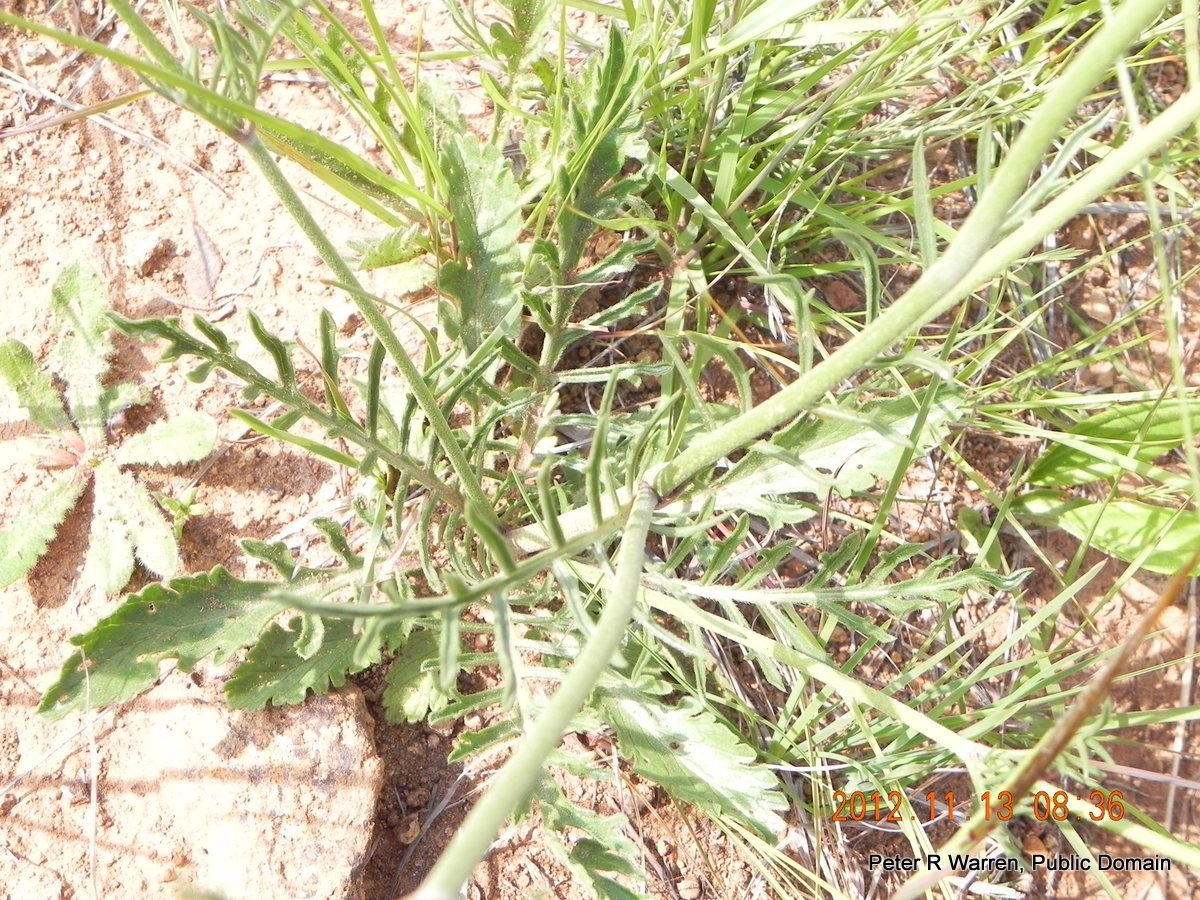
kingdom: Plantae
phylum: Tracheophyta
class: Magnoliopsida
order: Dipsacales
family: Caprifoliaceae
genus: Scabiosa
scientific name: Scabiosa columbaria
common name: Small scabious
